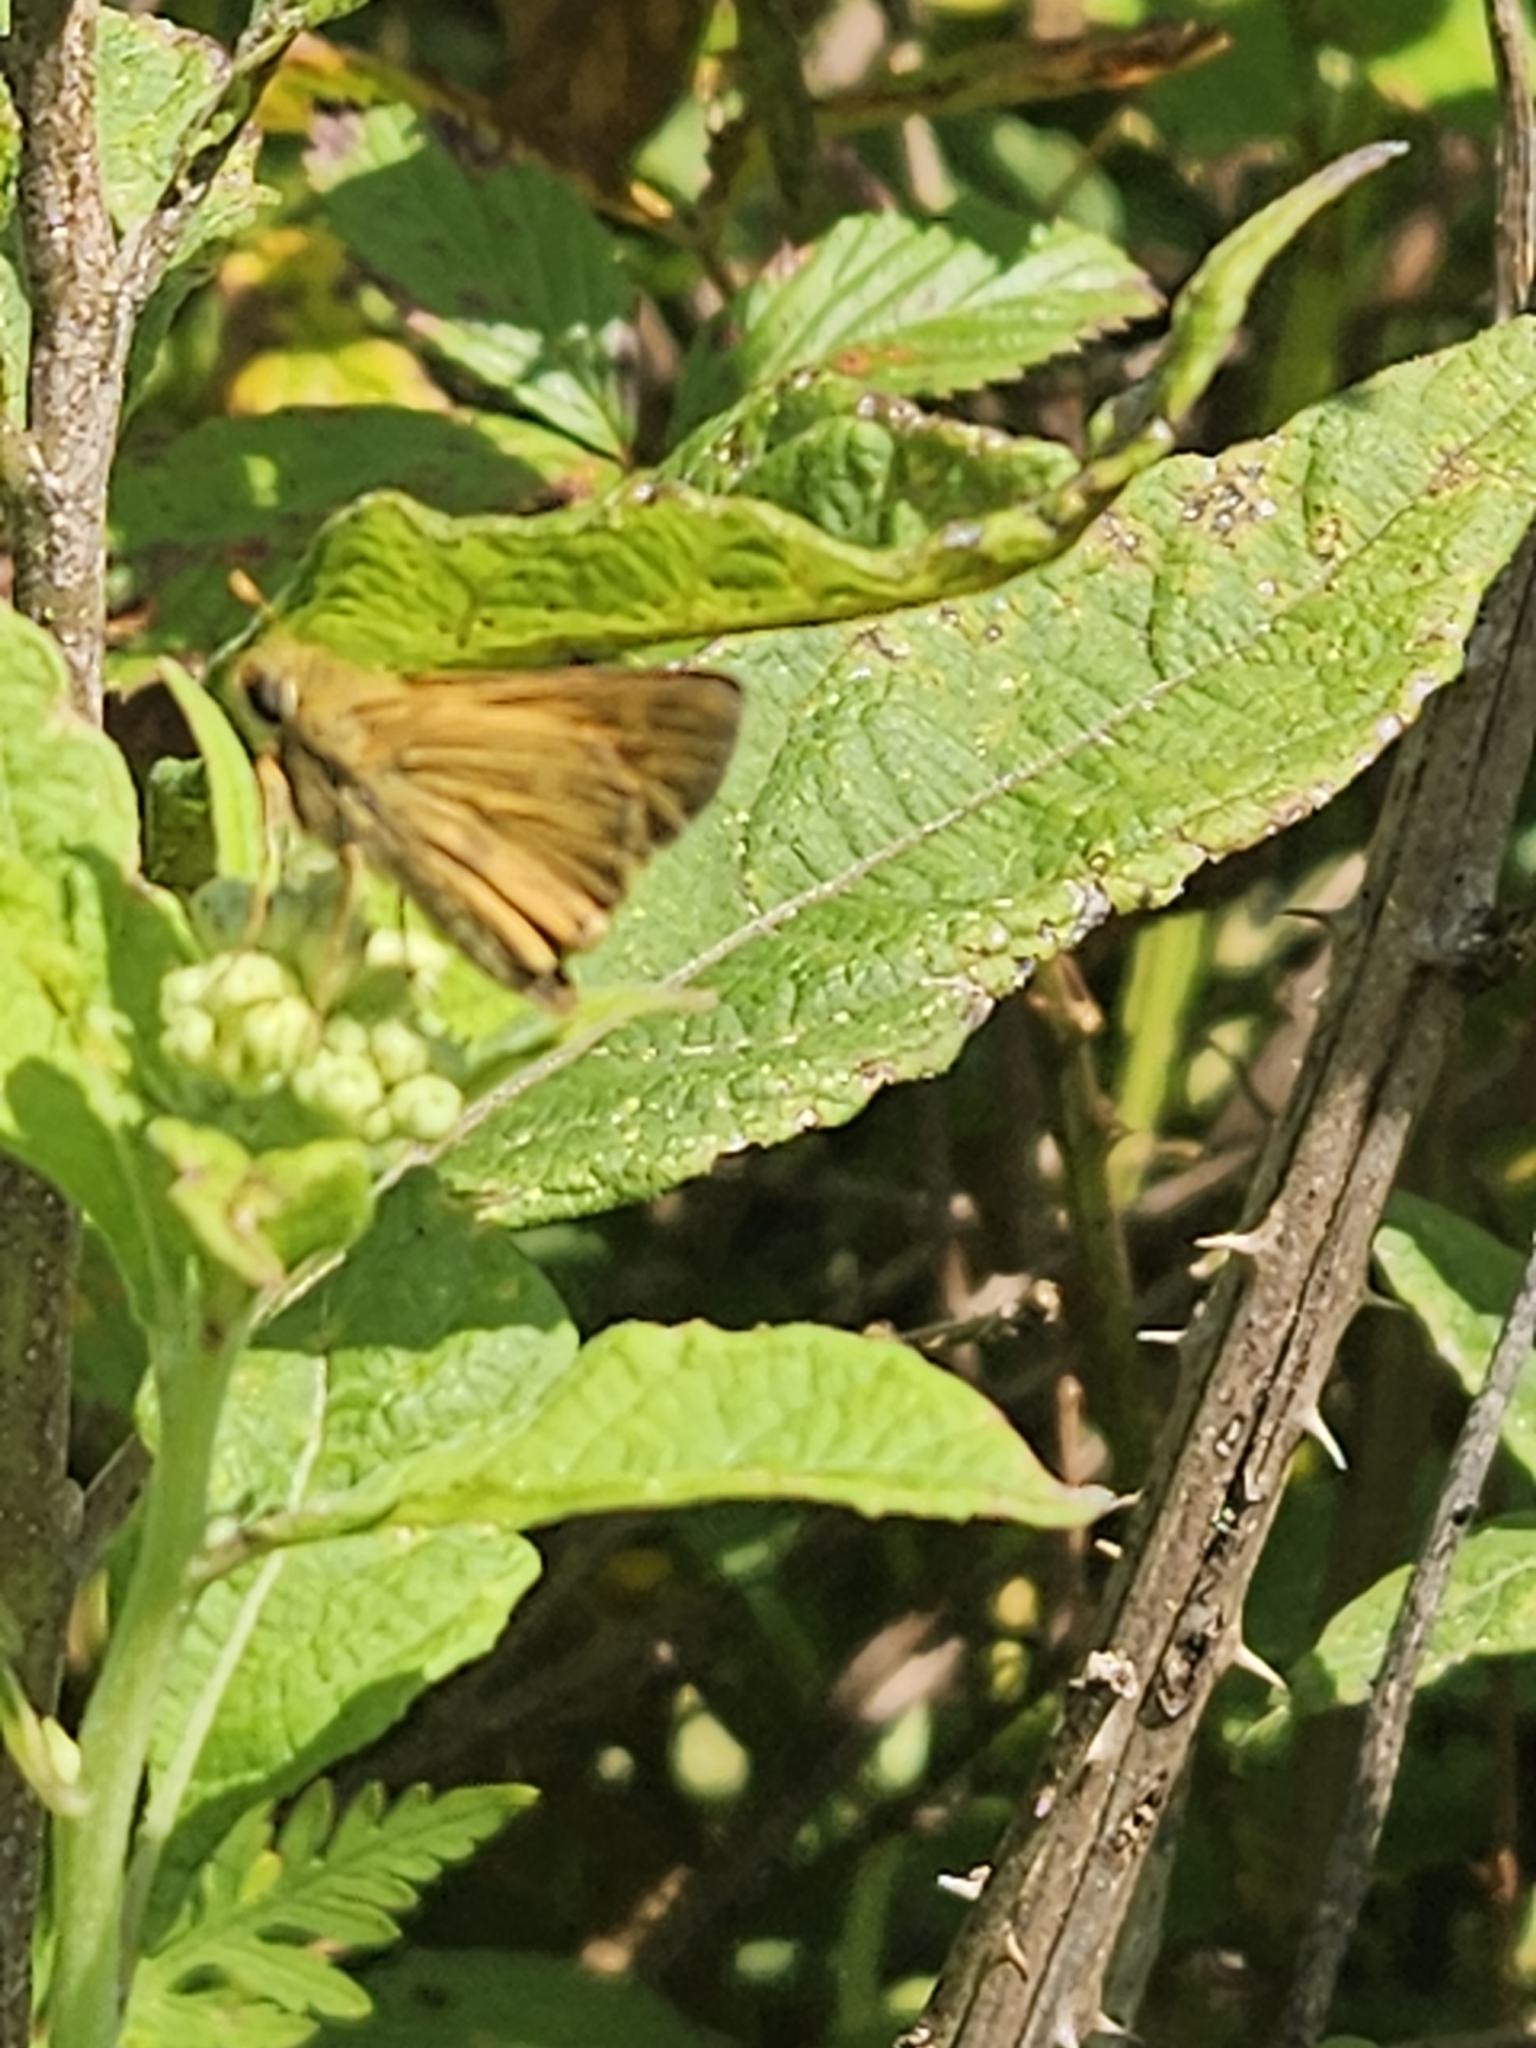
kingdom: Animalia
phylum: Arthropoda
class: Insecta
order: Lepidoptera
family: Hesperiidae
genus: Atalopedes
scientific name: Atalopedes
